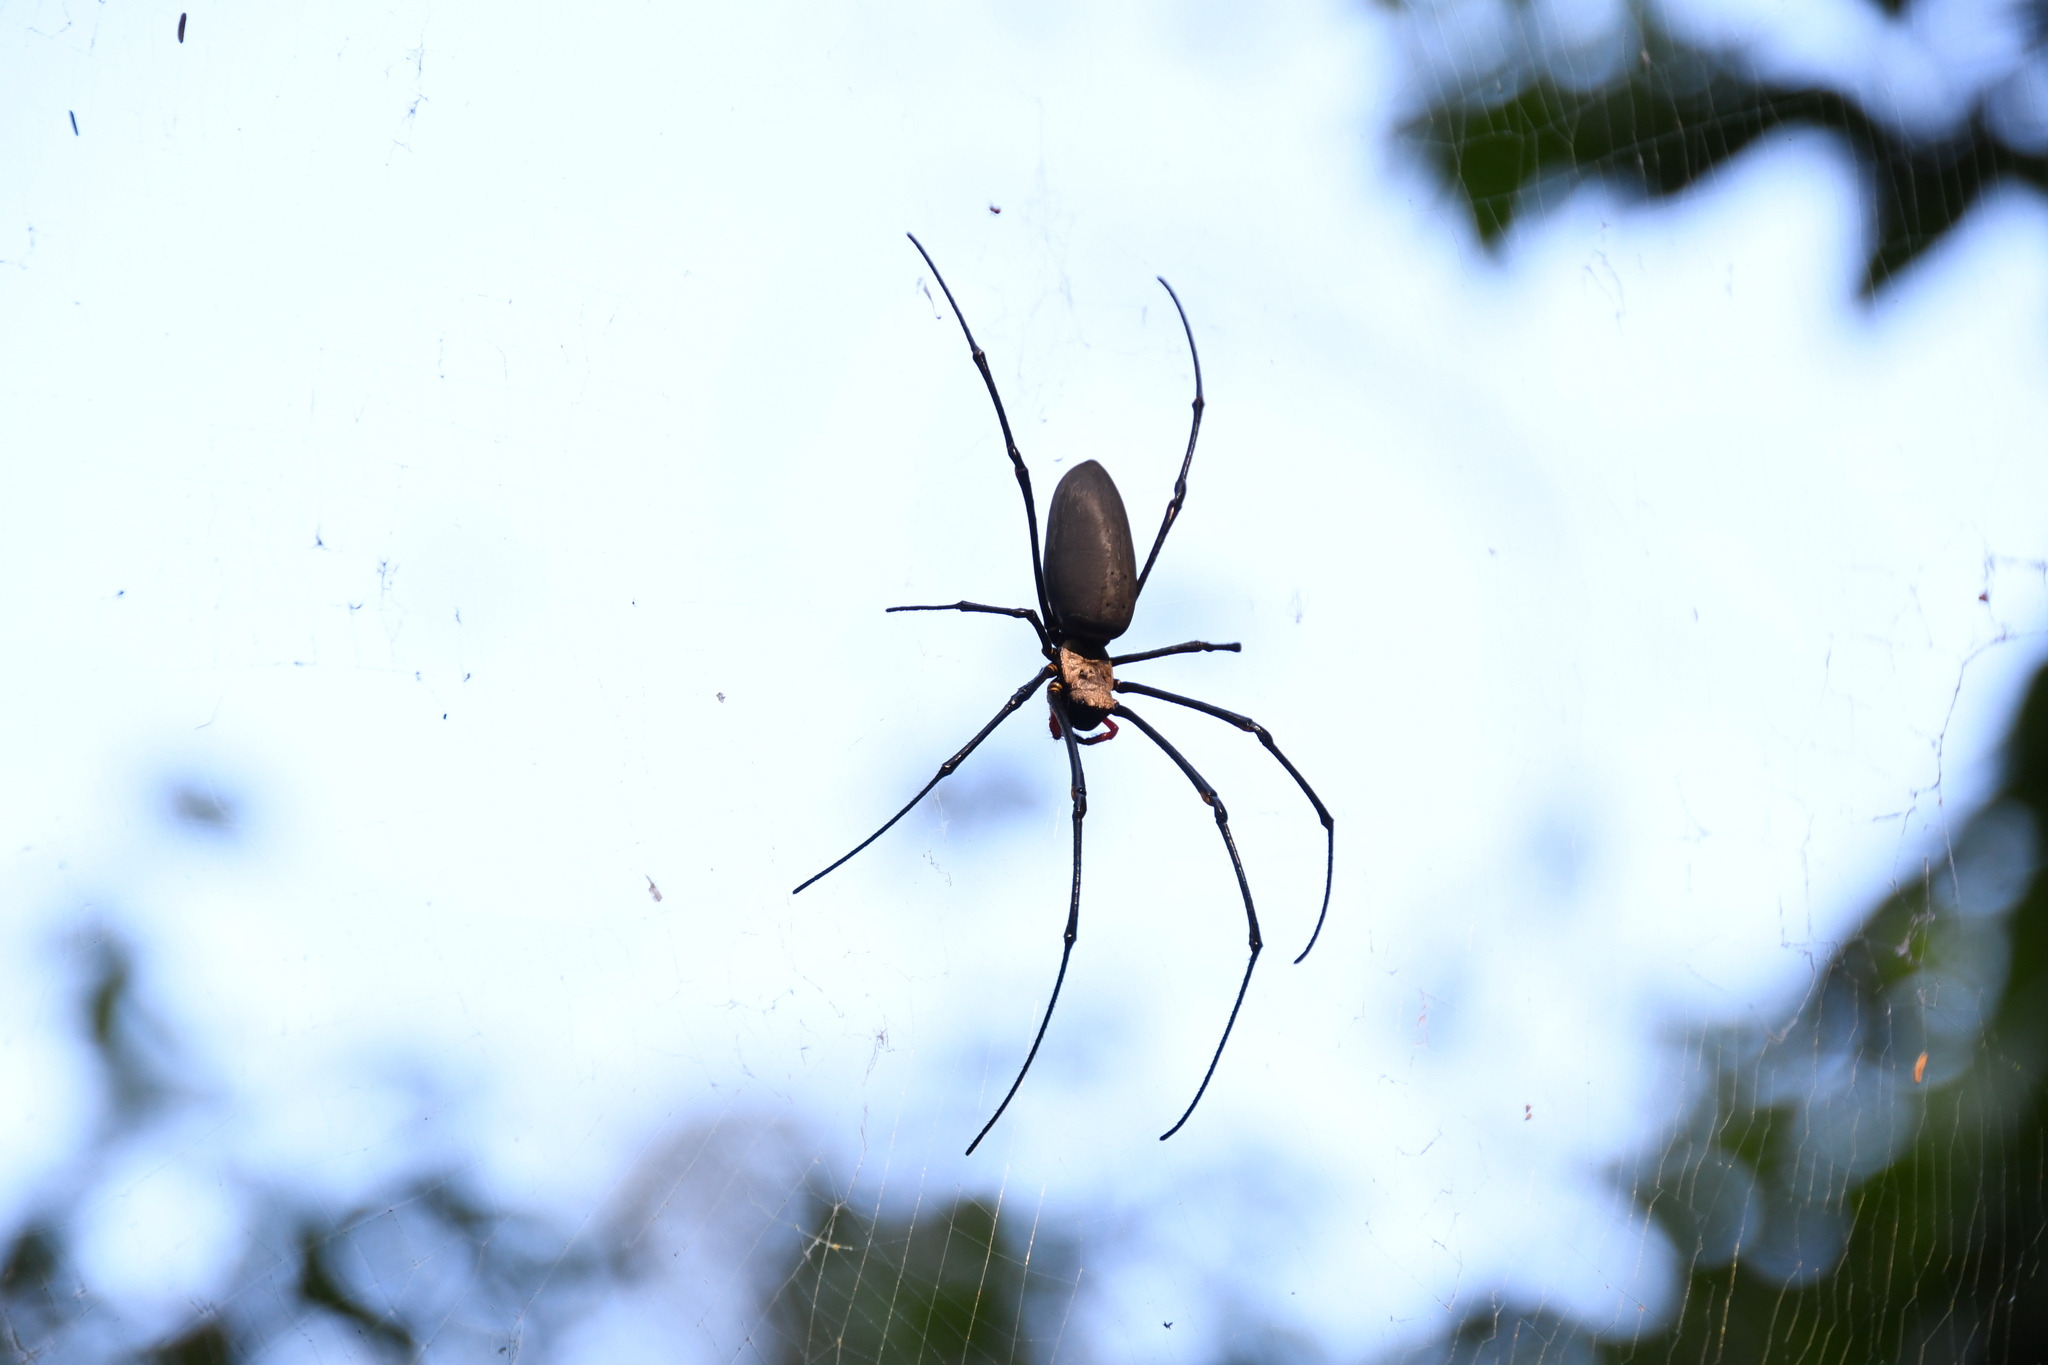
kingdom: Animalia
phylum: Arthropoda
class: Arachnida
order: Araneae
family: Araneidae
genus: Nephila
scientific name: Nephila pilipes
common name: Giant golden orb weaver
